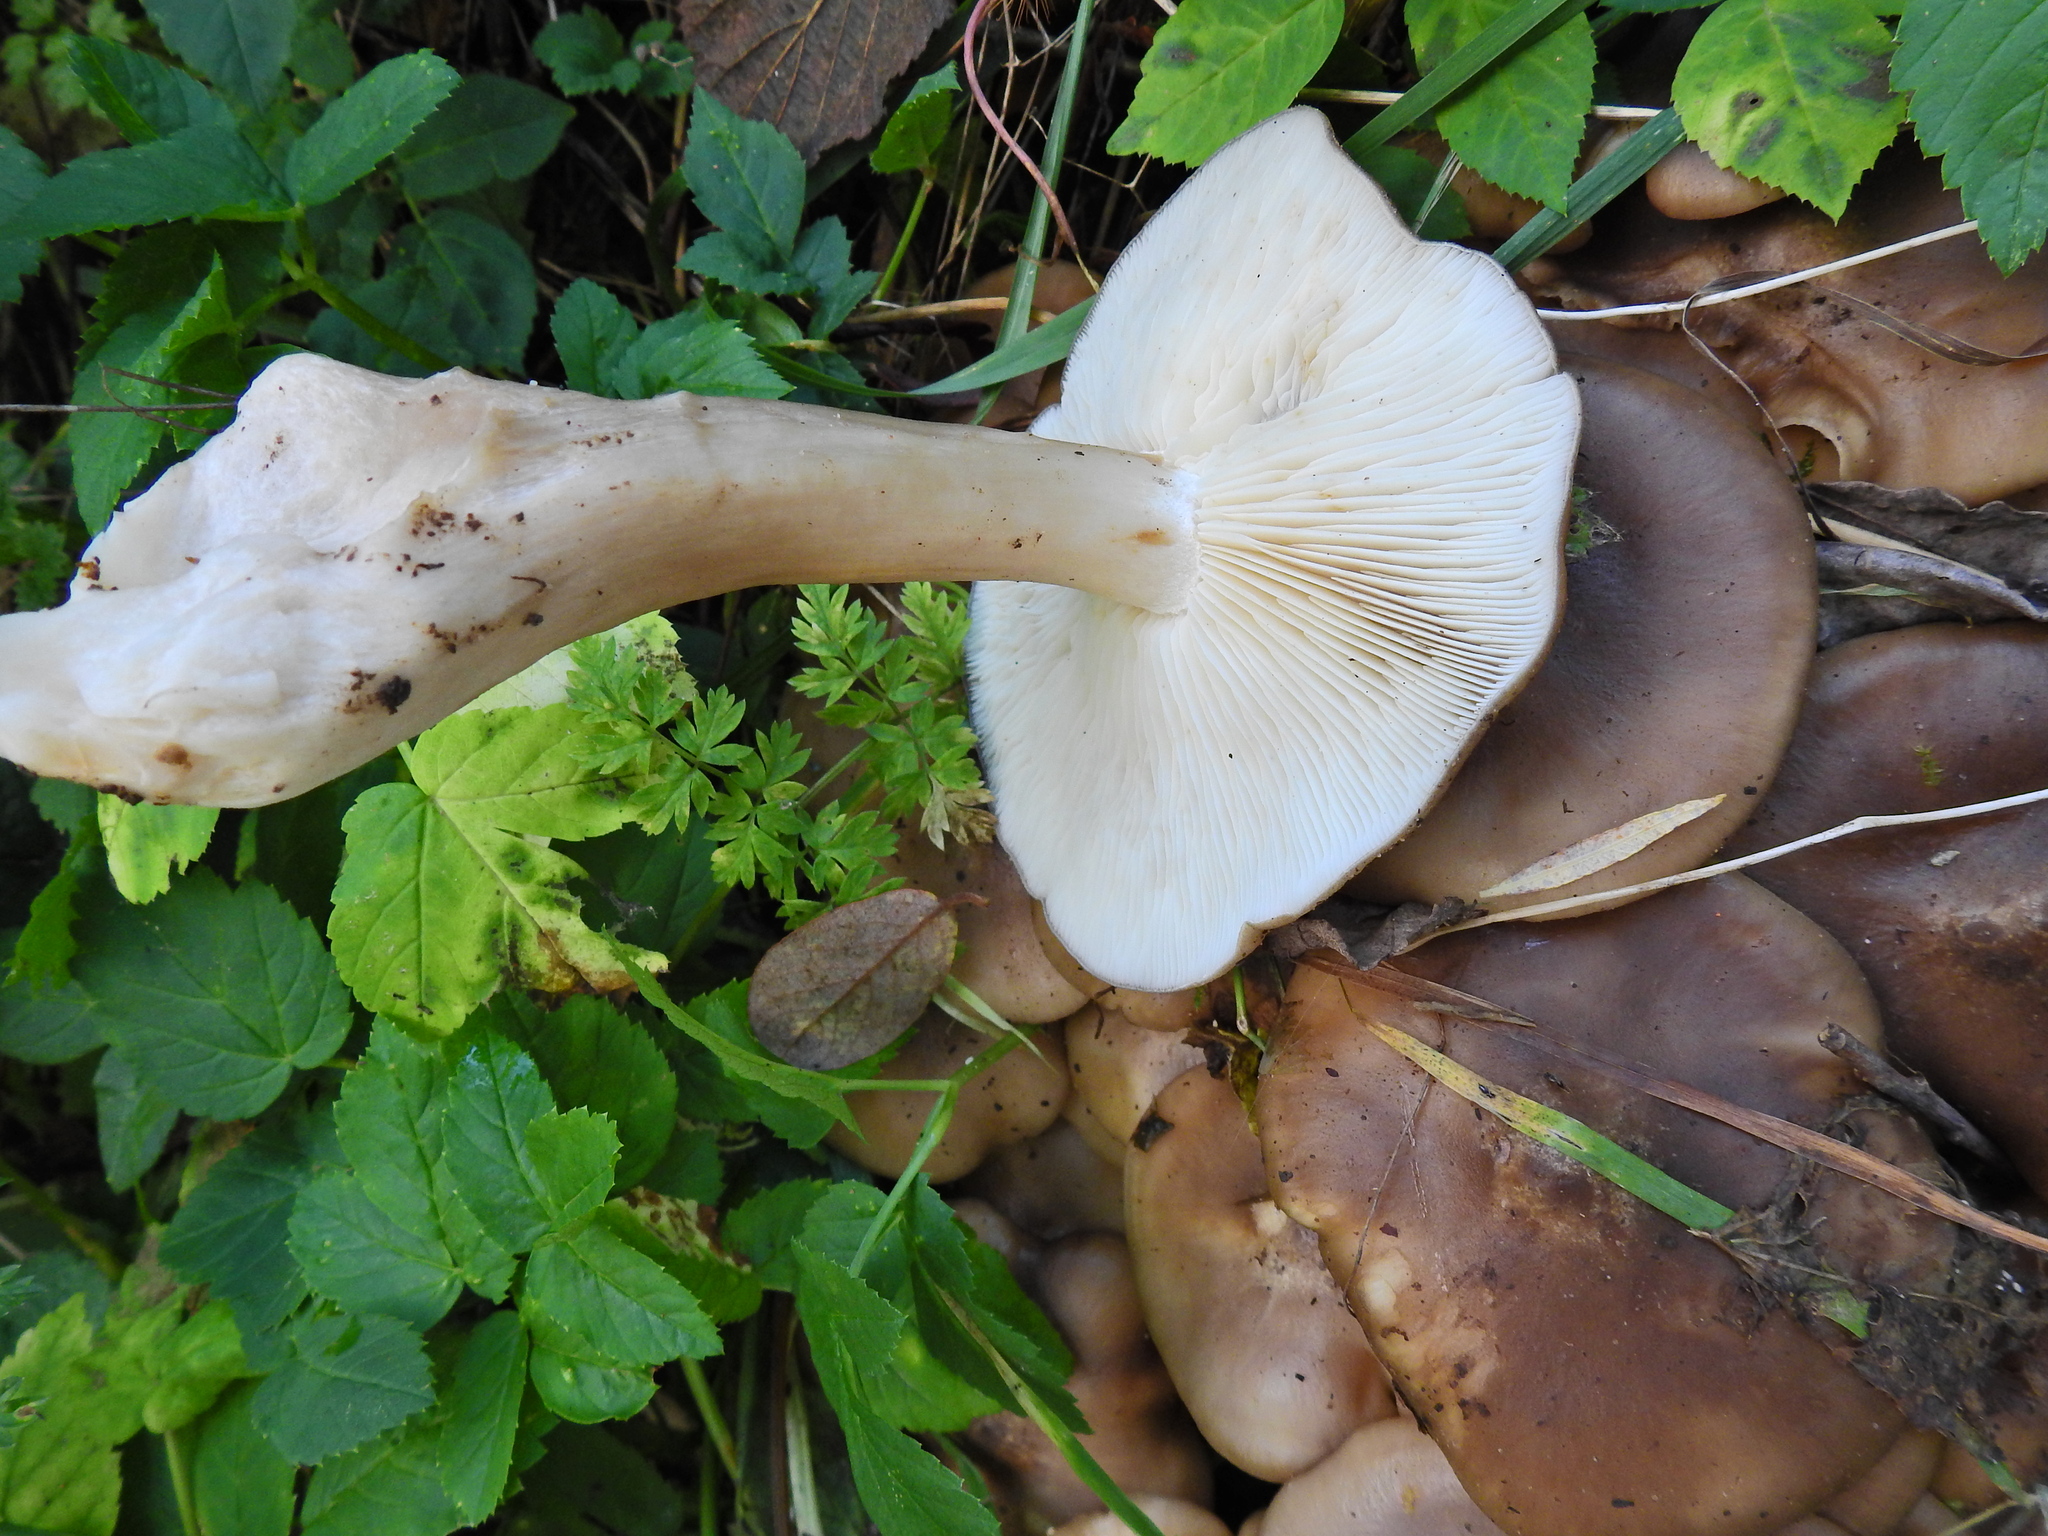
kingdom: Fungi
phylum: Basidiomycota
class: Agaricomycetes
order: Agaricales
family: Lyophyllaceae
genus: Lyophyllum
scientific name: Lyophyllum decastes
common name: Clustered domecap
